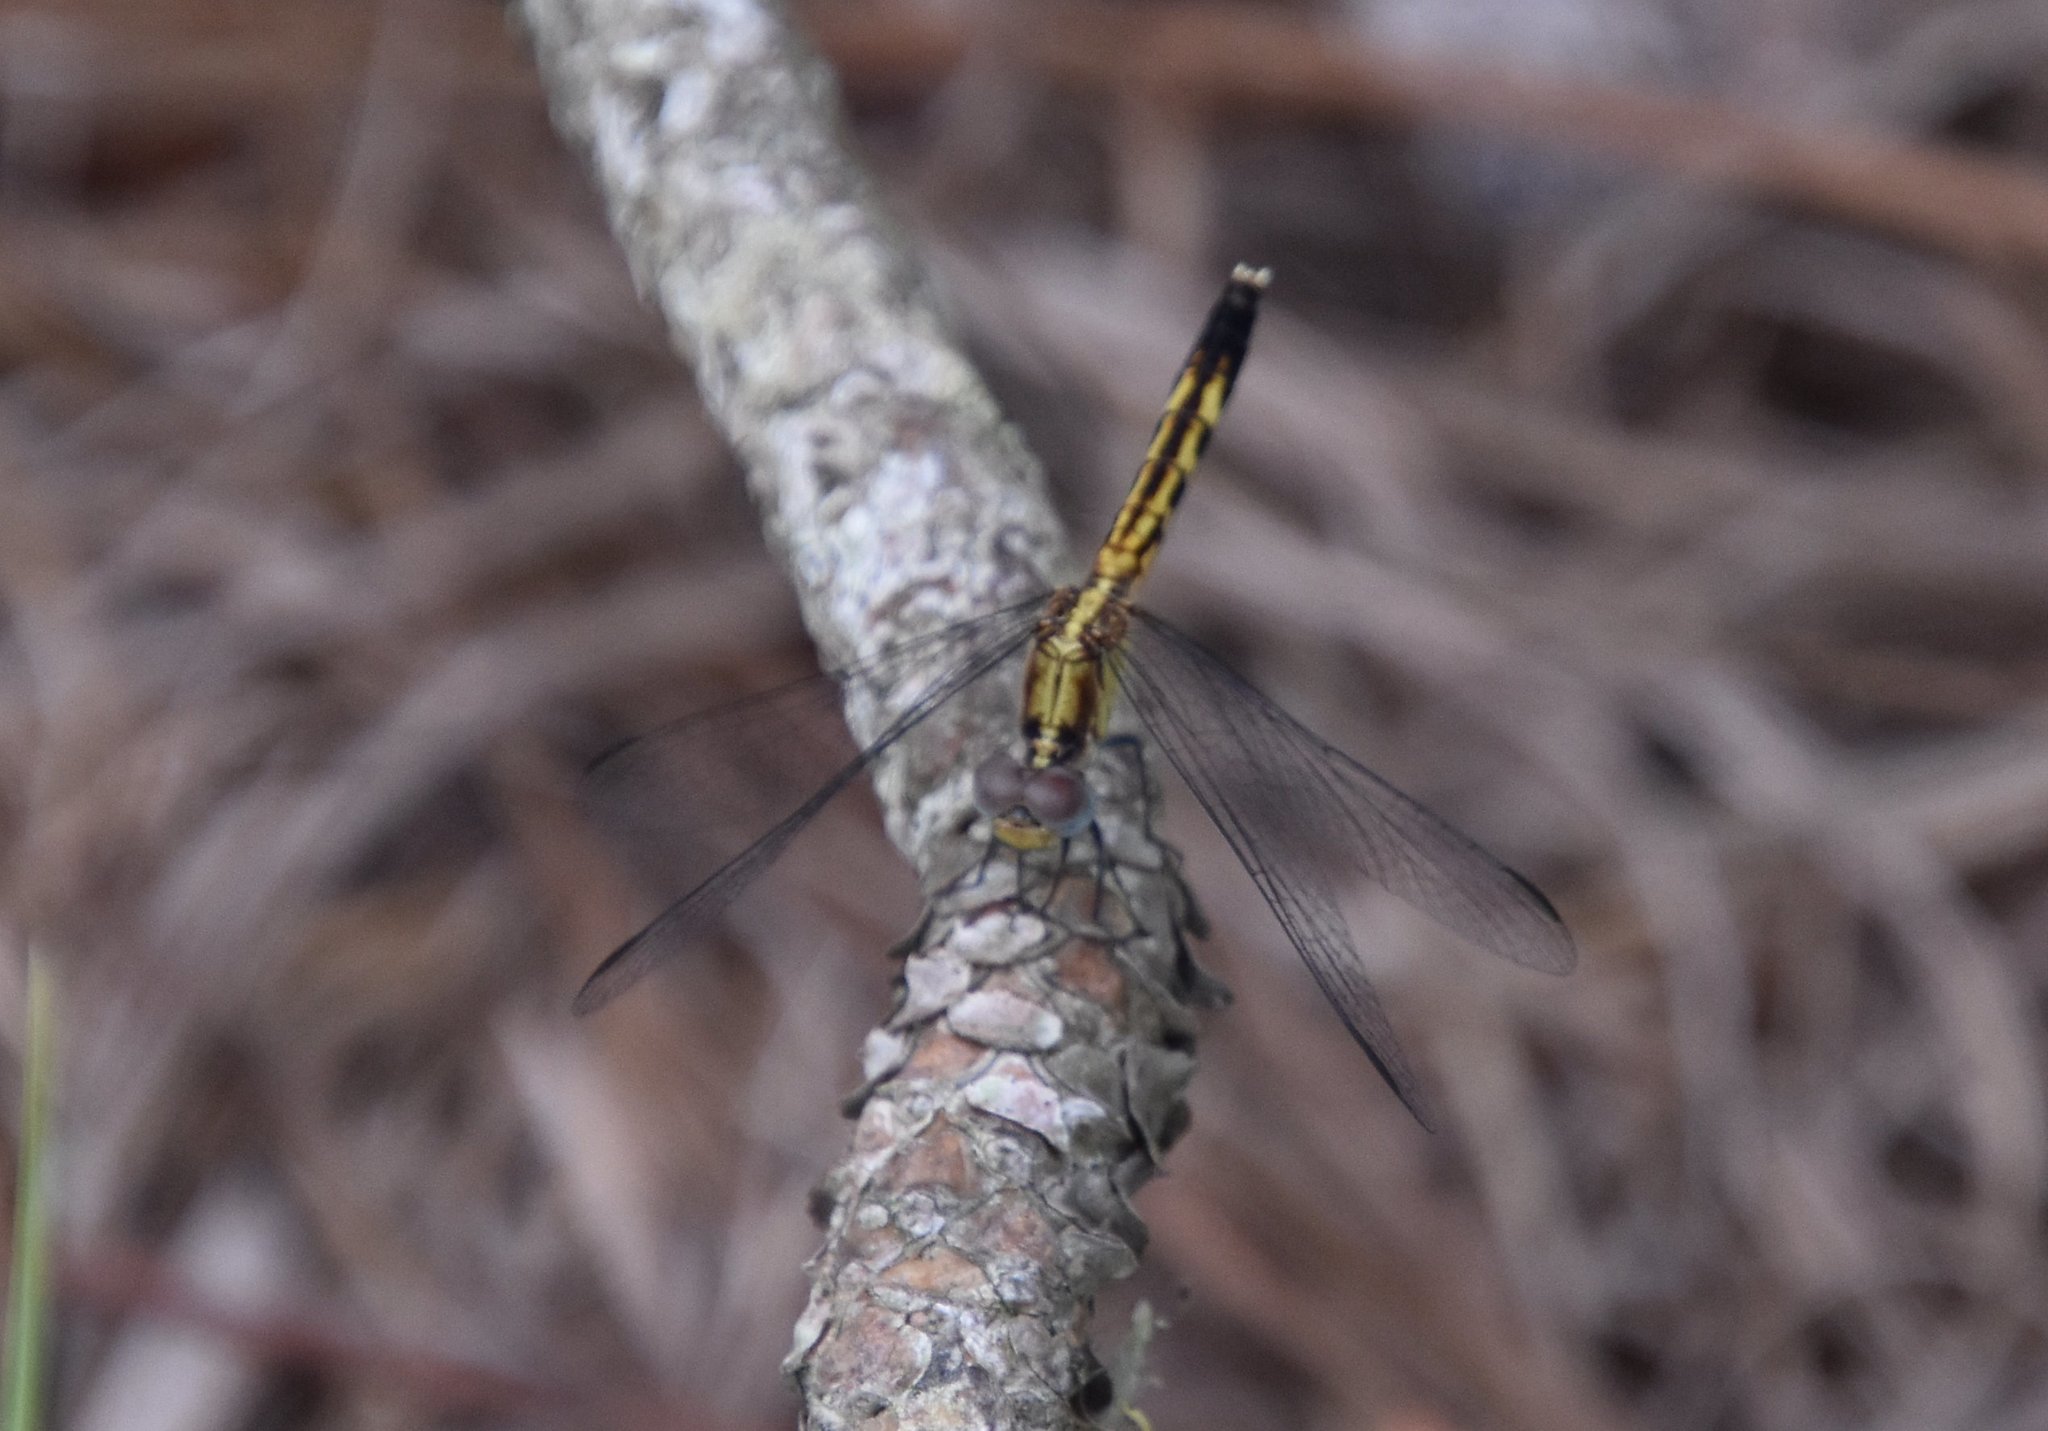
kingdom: Animalia
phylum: Arthropoda
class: Insecta
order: Odonata
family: Libellulidae
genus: Erythrodiplax
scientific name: Erythrodiplax minuscula
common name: Little blue dragonlet
